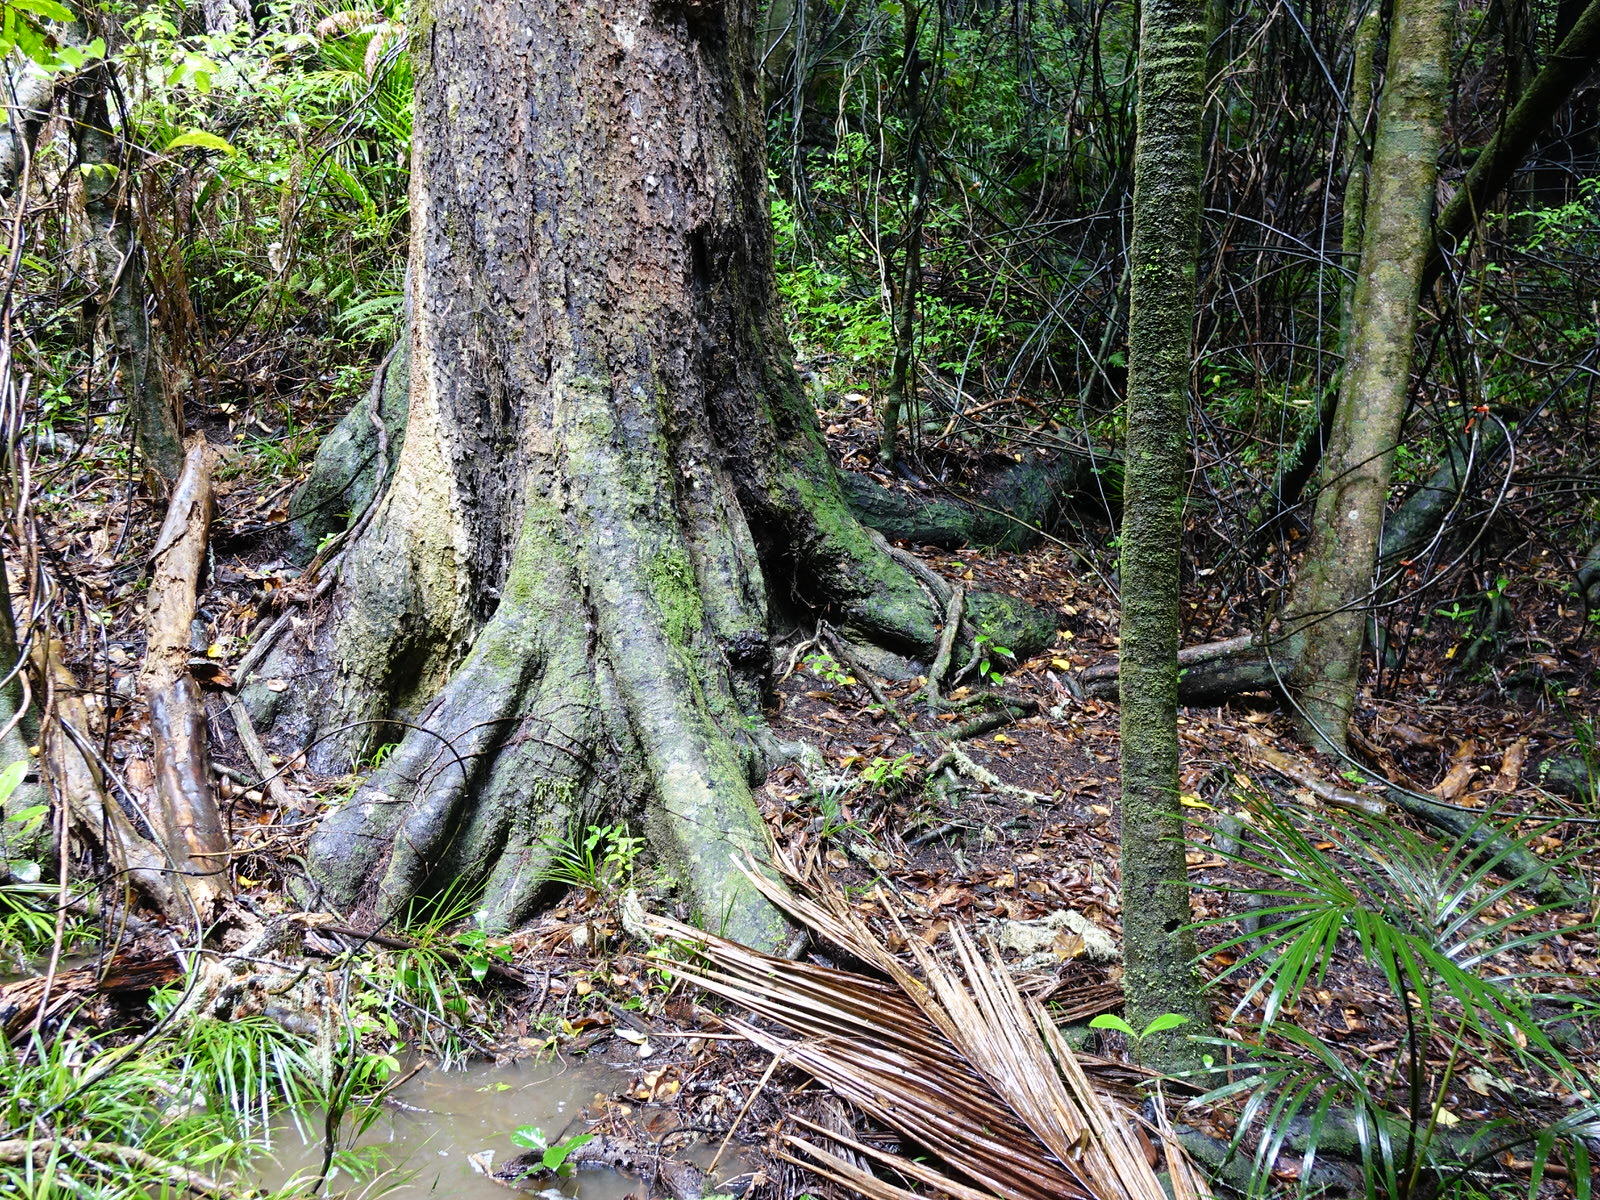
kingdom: Plantae
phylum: Tracheophyta
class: Pinopsida
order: Pinales
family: Podocarpaceae
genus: Dacrycarpus
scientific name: Dacrycarpus dacrydioides
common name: White pine
